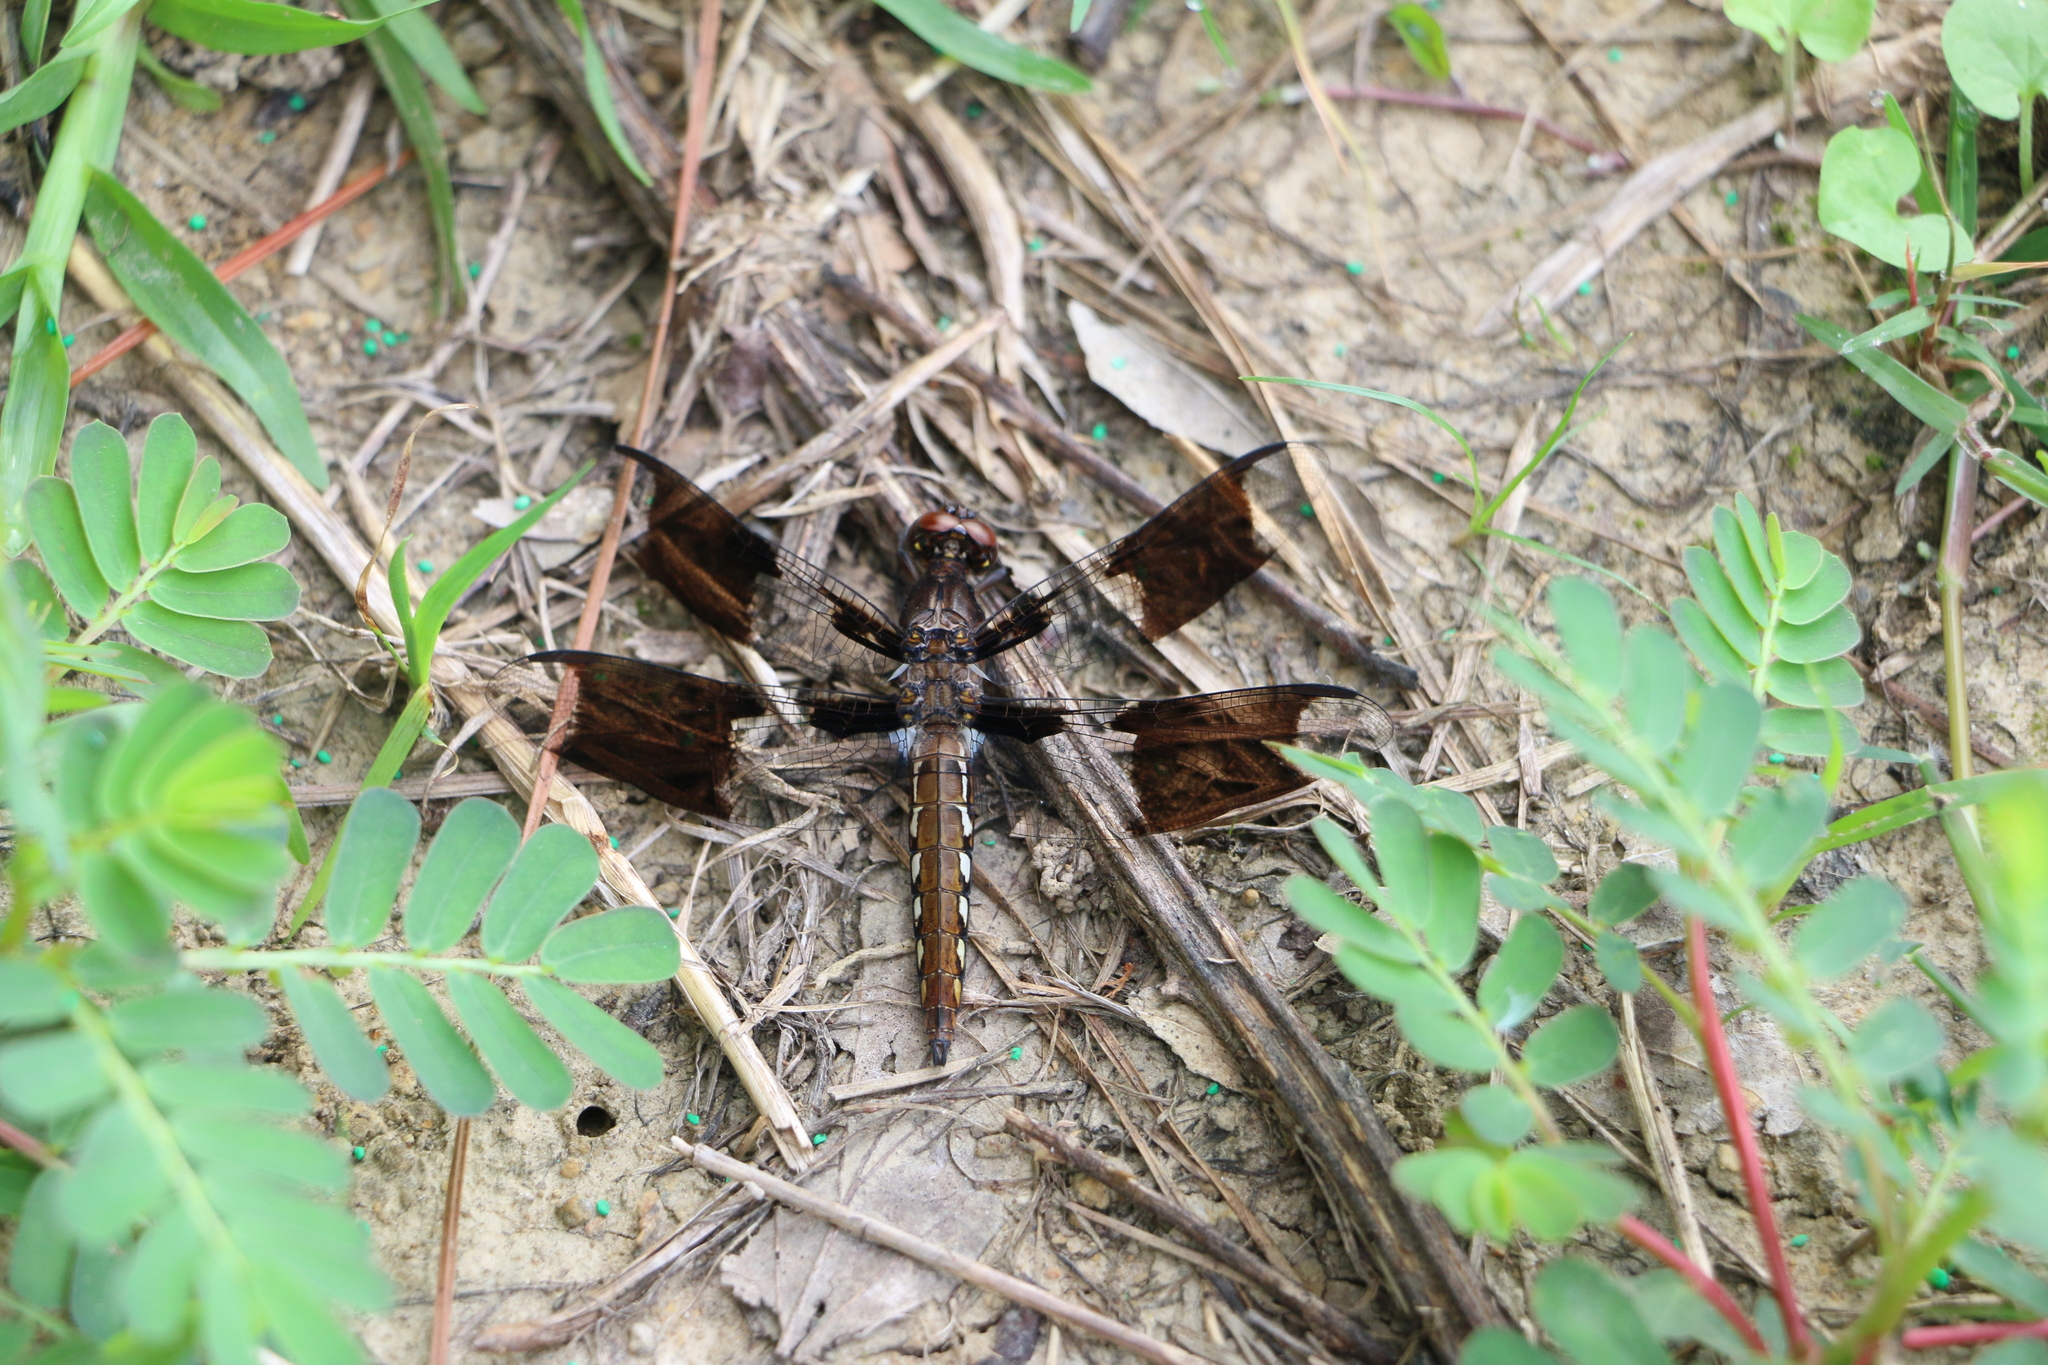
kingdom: Animalia
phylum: Arthropoda
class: Insecta
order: Odonata
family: Libellulidae
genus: Plathemis
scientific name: Plathemis lydia
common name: Common whitetail
